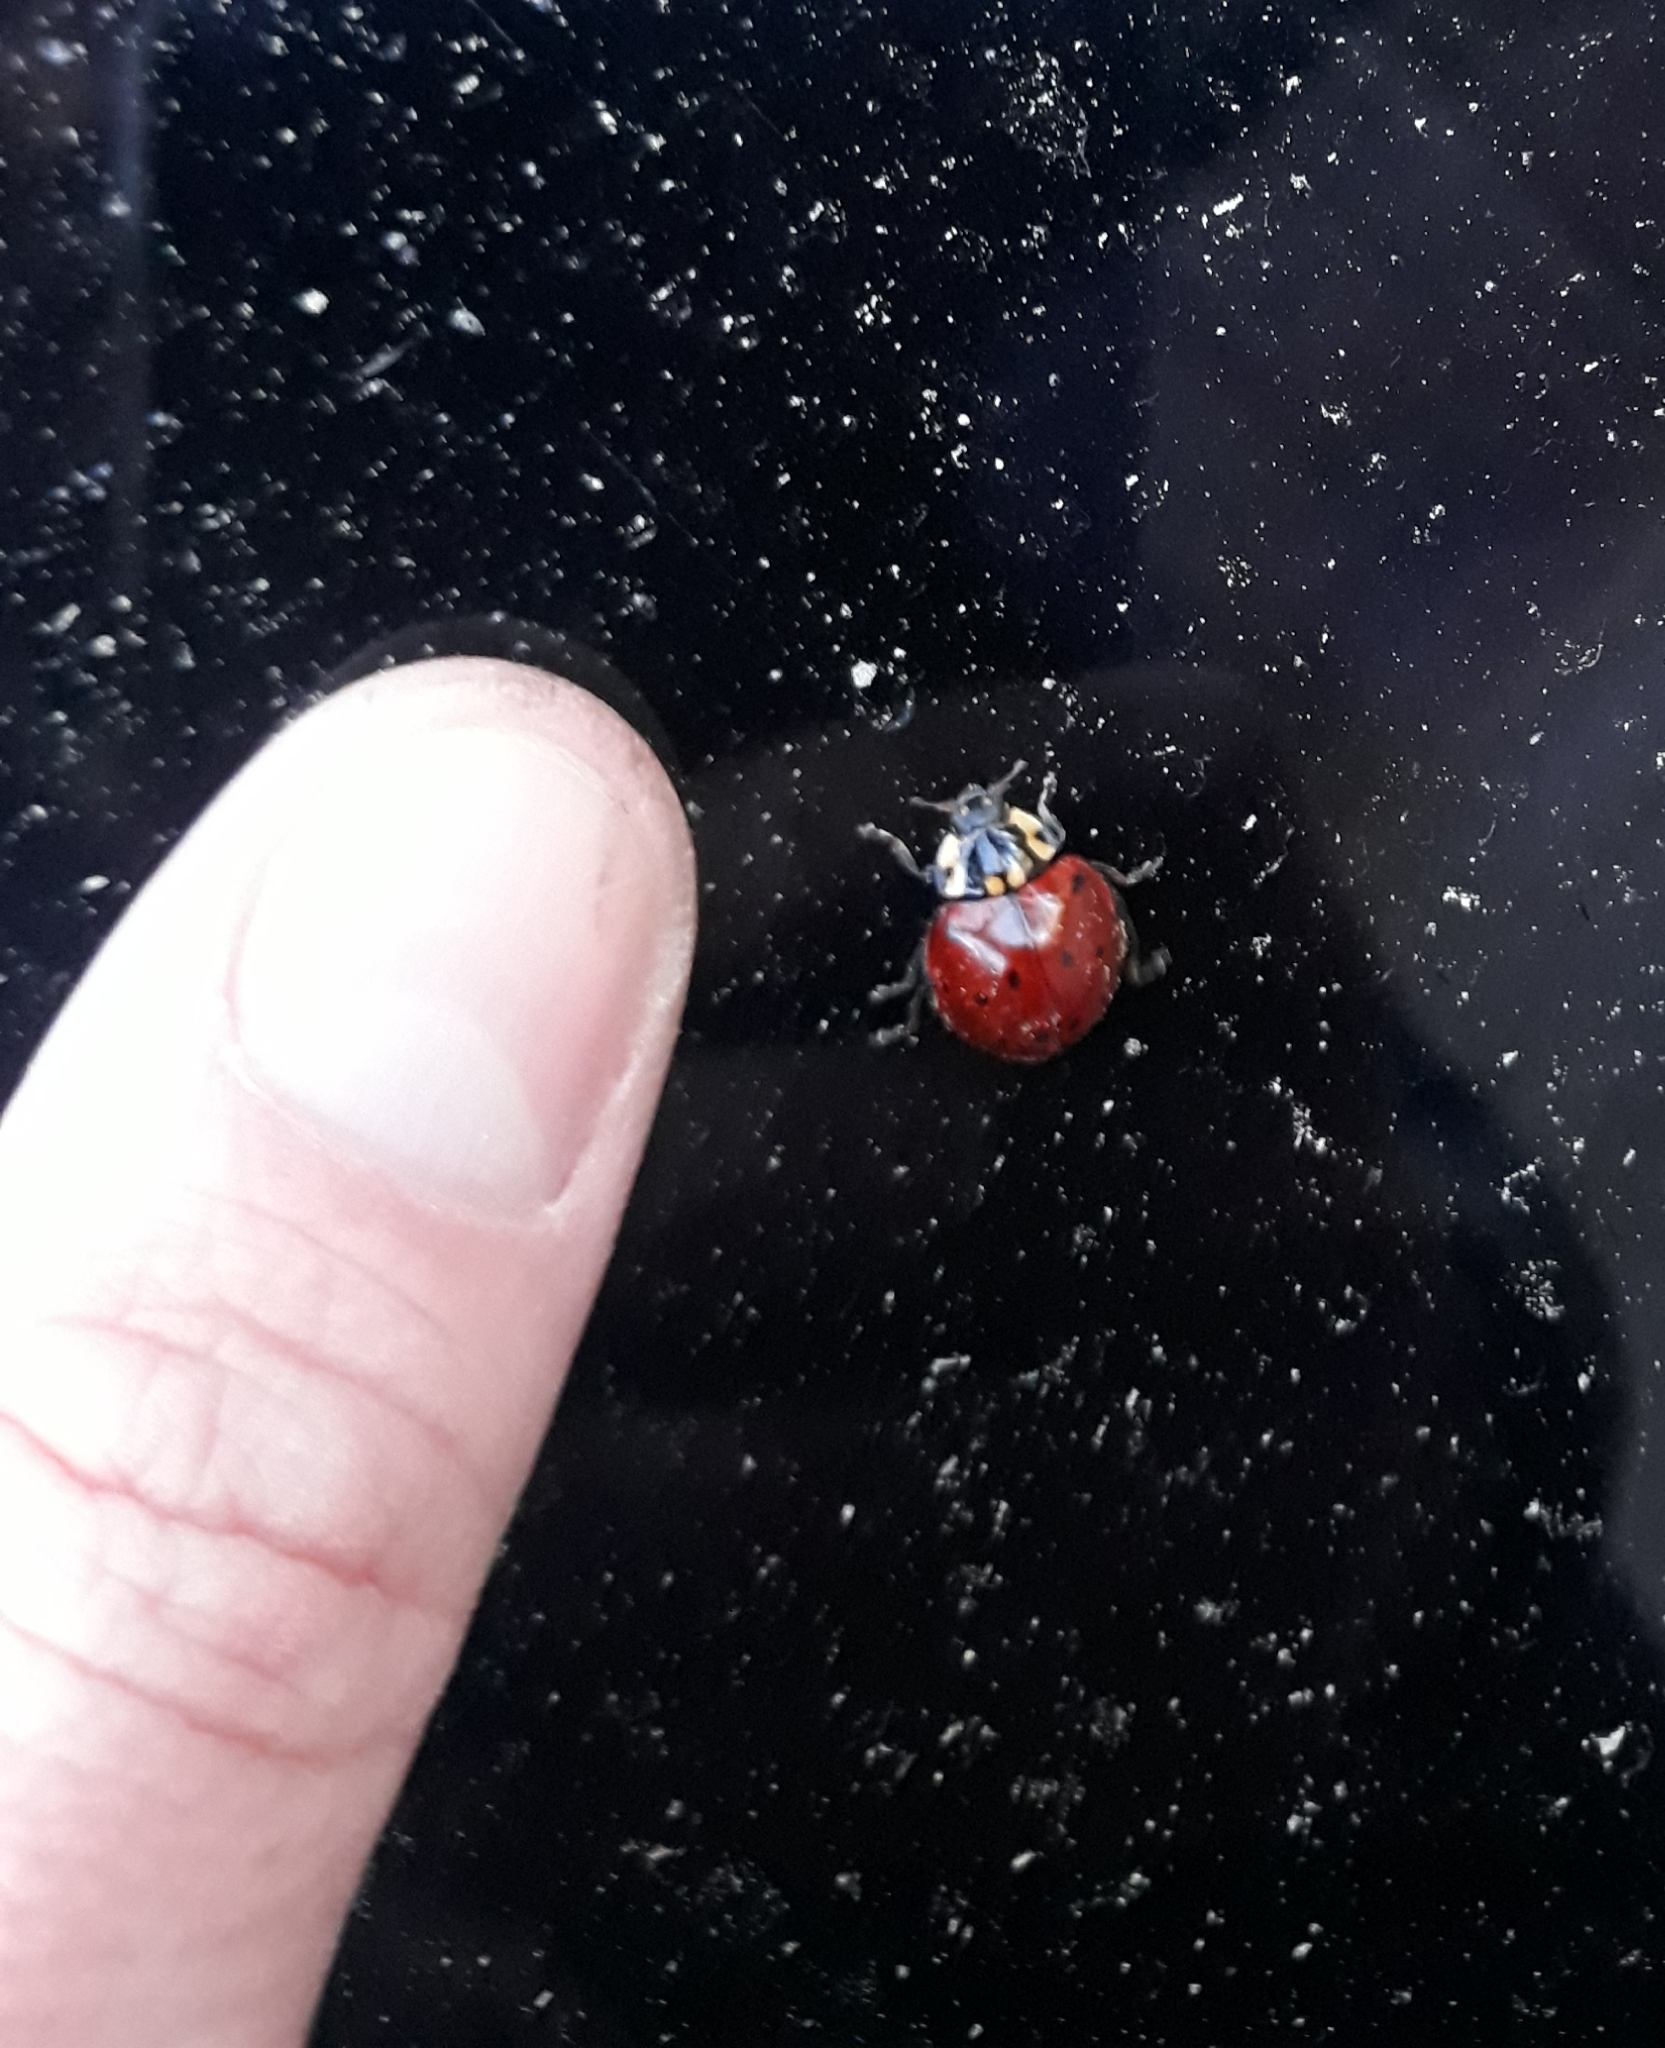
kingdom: Animalia
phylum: Arthropoda
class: Insecta
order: Coleoptera
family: Coccinellidae
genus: Harmonia
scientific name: Harmonia axyridis
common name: Harlequin ladybird
